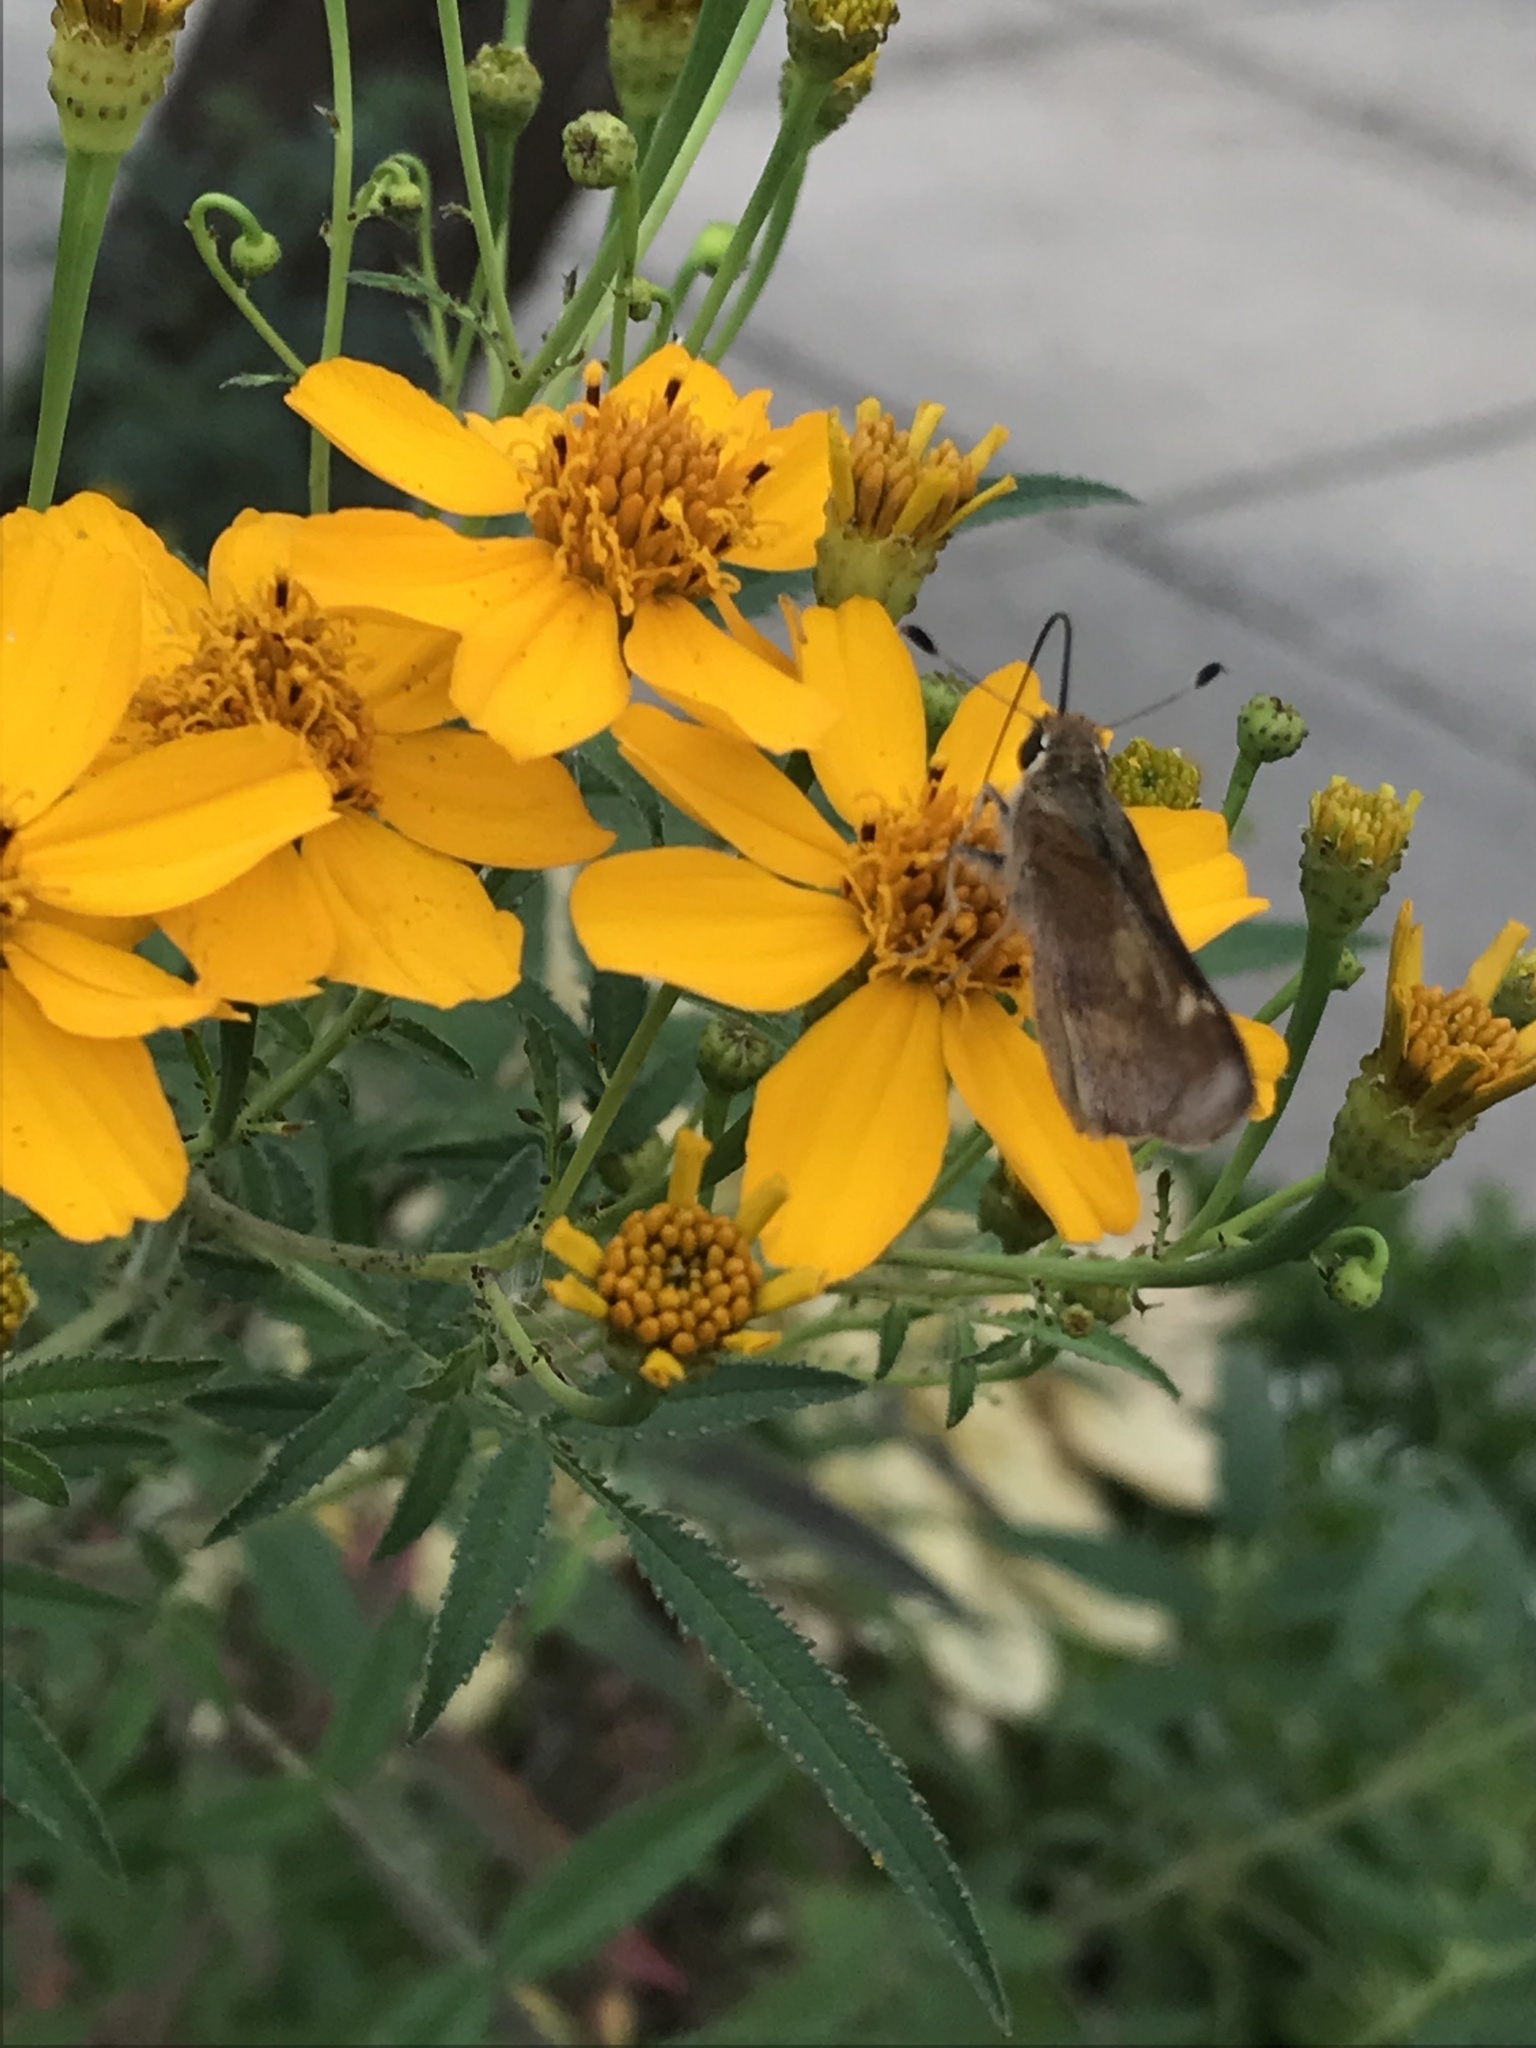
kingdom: Animalia
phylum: Arthropoda
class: Insecta
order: Lepidoptera
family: Hesperiidae
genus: Lon
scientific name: Lon melane
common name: Umber skipper
